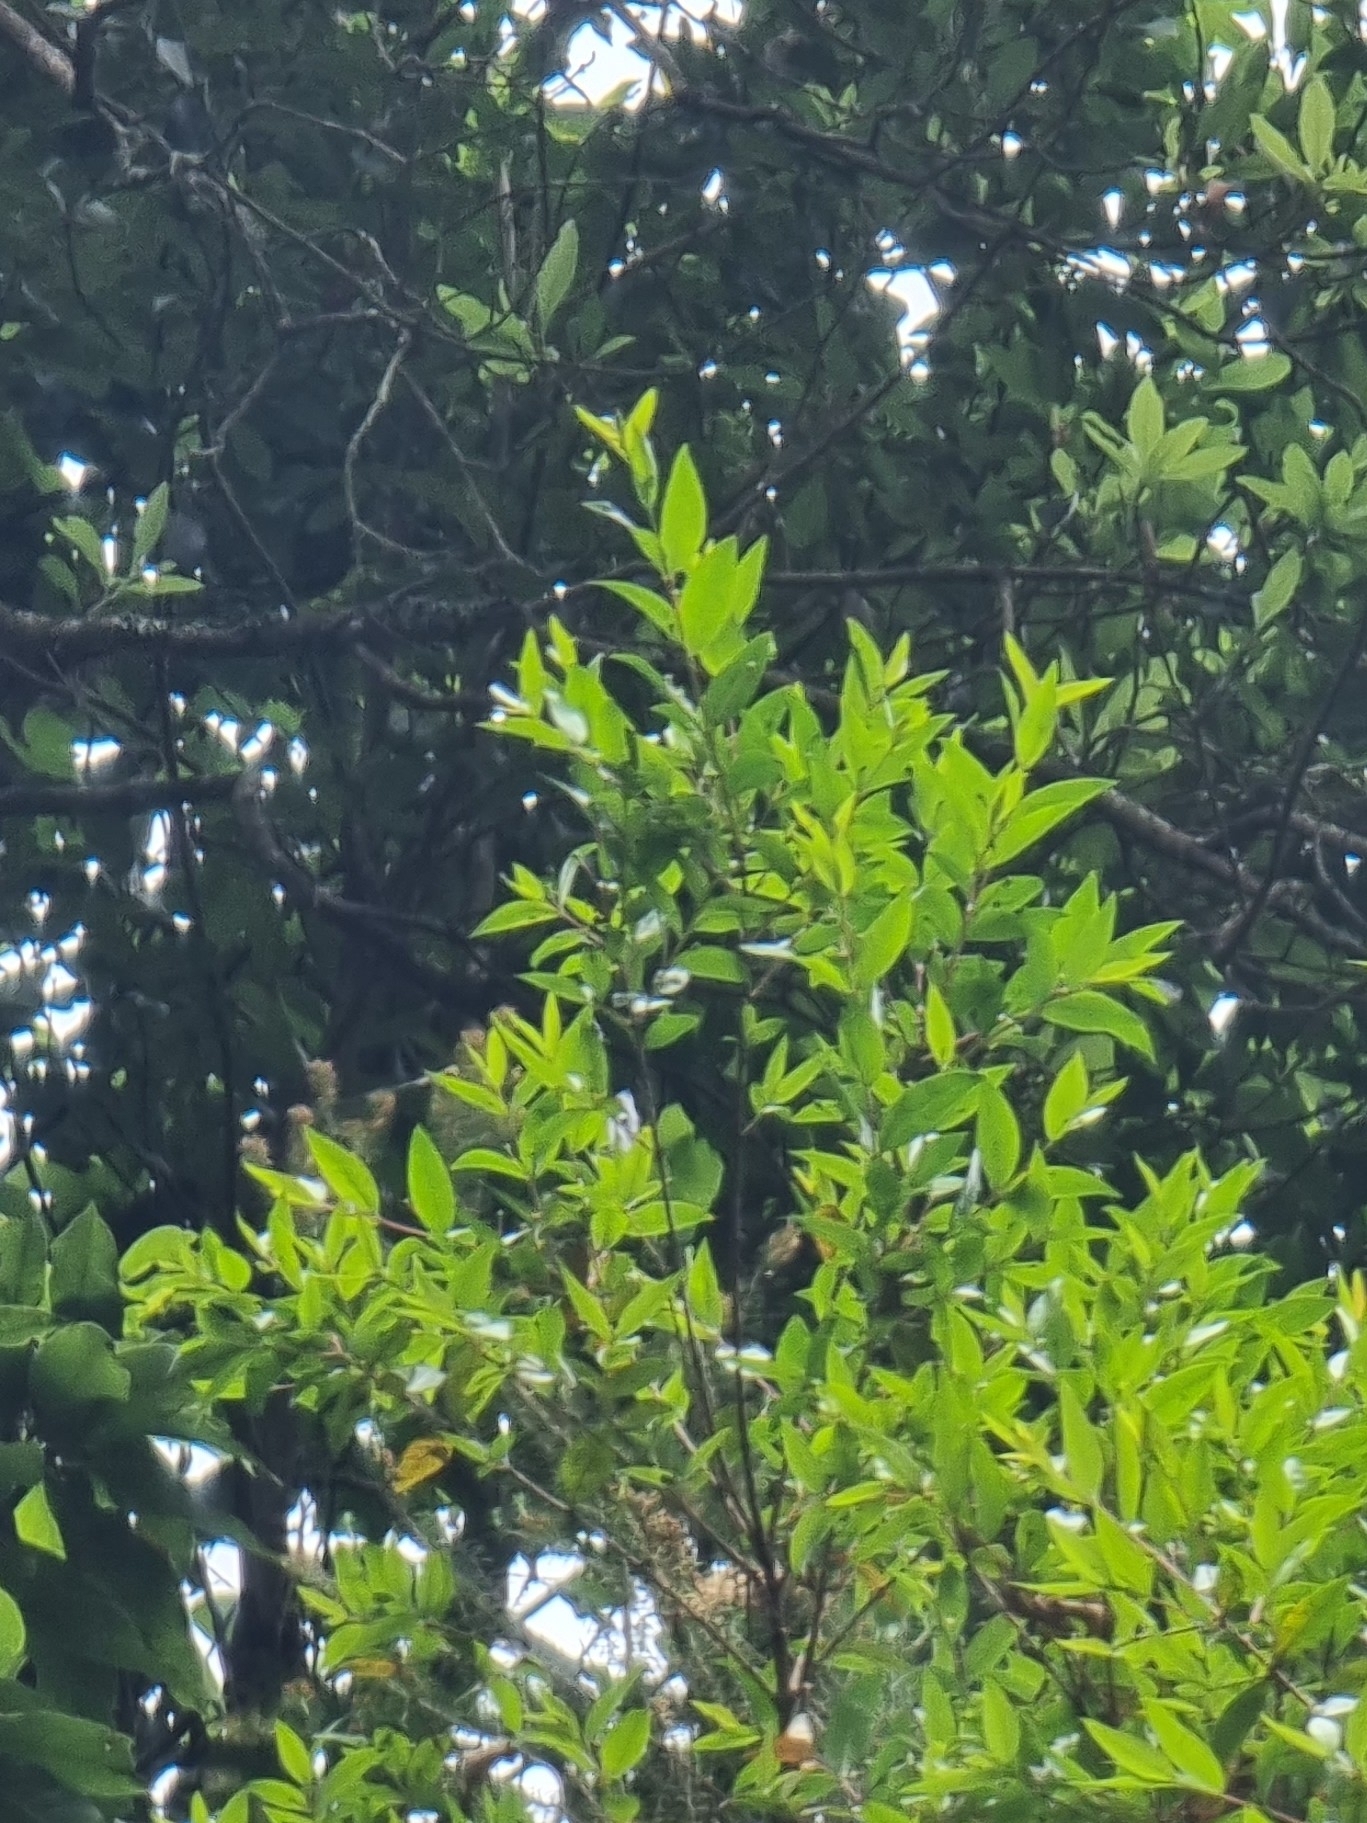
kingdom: Plantae
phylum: Tracheophyta
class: Magnoliopsida
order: Myrtales
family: Myrtaceae
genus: Myrtus
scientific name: Myrtus communis
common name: Myrtle
